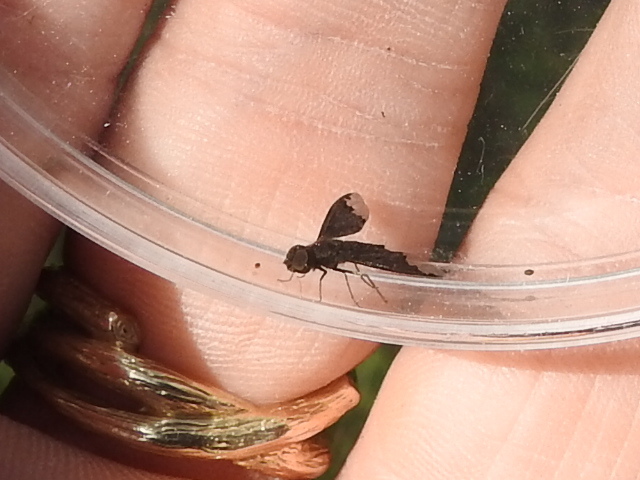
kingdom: Animalia
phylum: Arthropoda
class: Insecta
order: Diptera
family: Bombyliidae
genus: Hemipenthes
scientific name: Hemipenthes sinuosus
